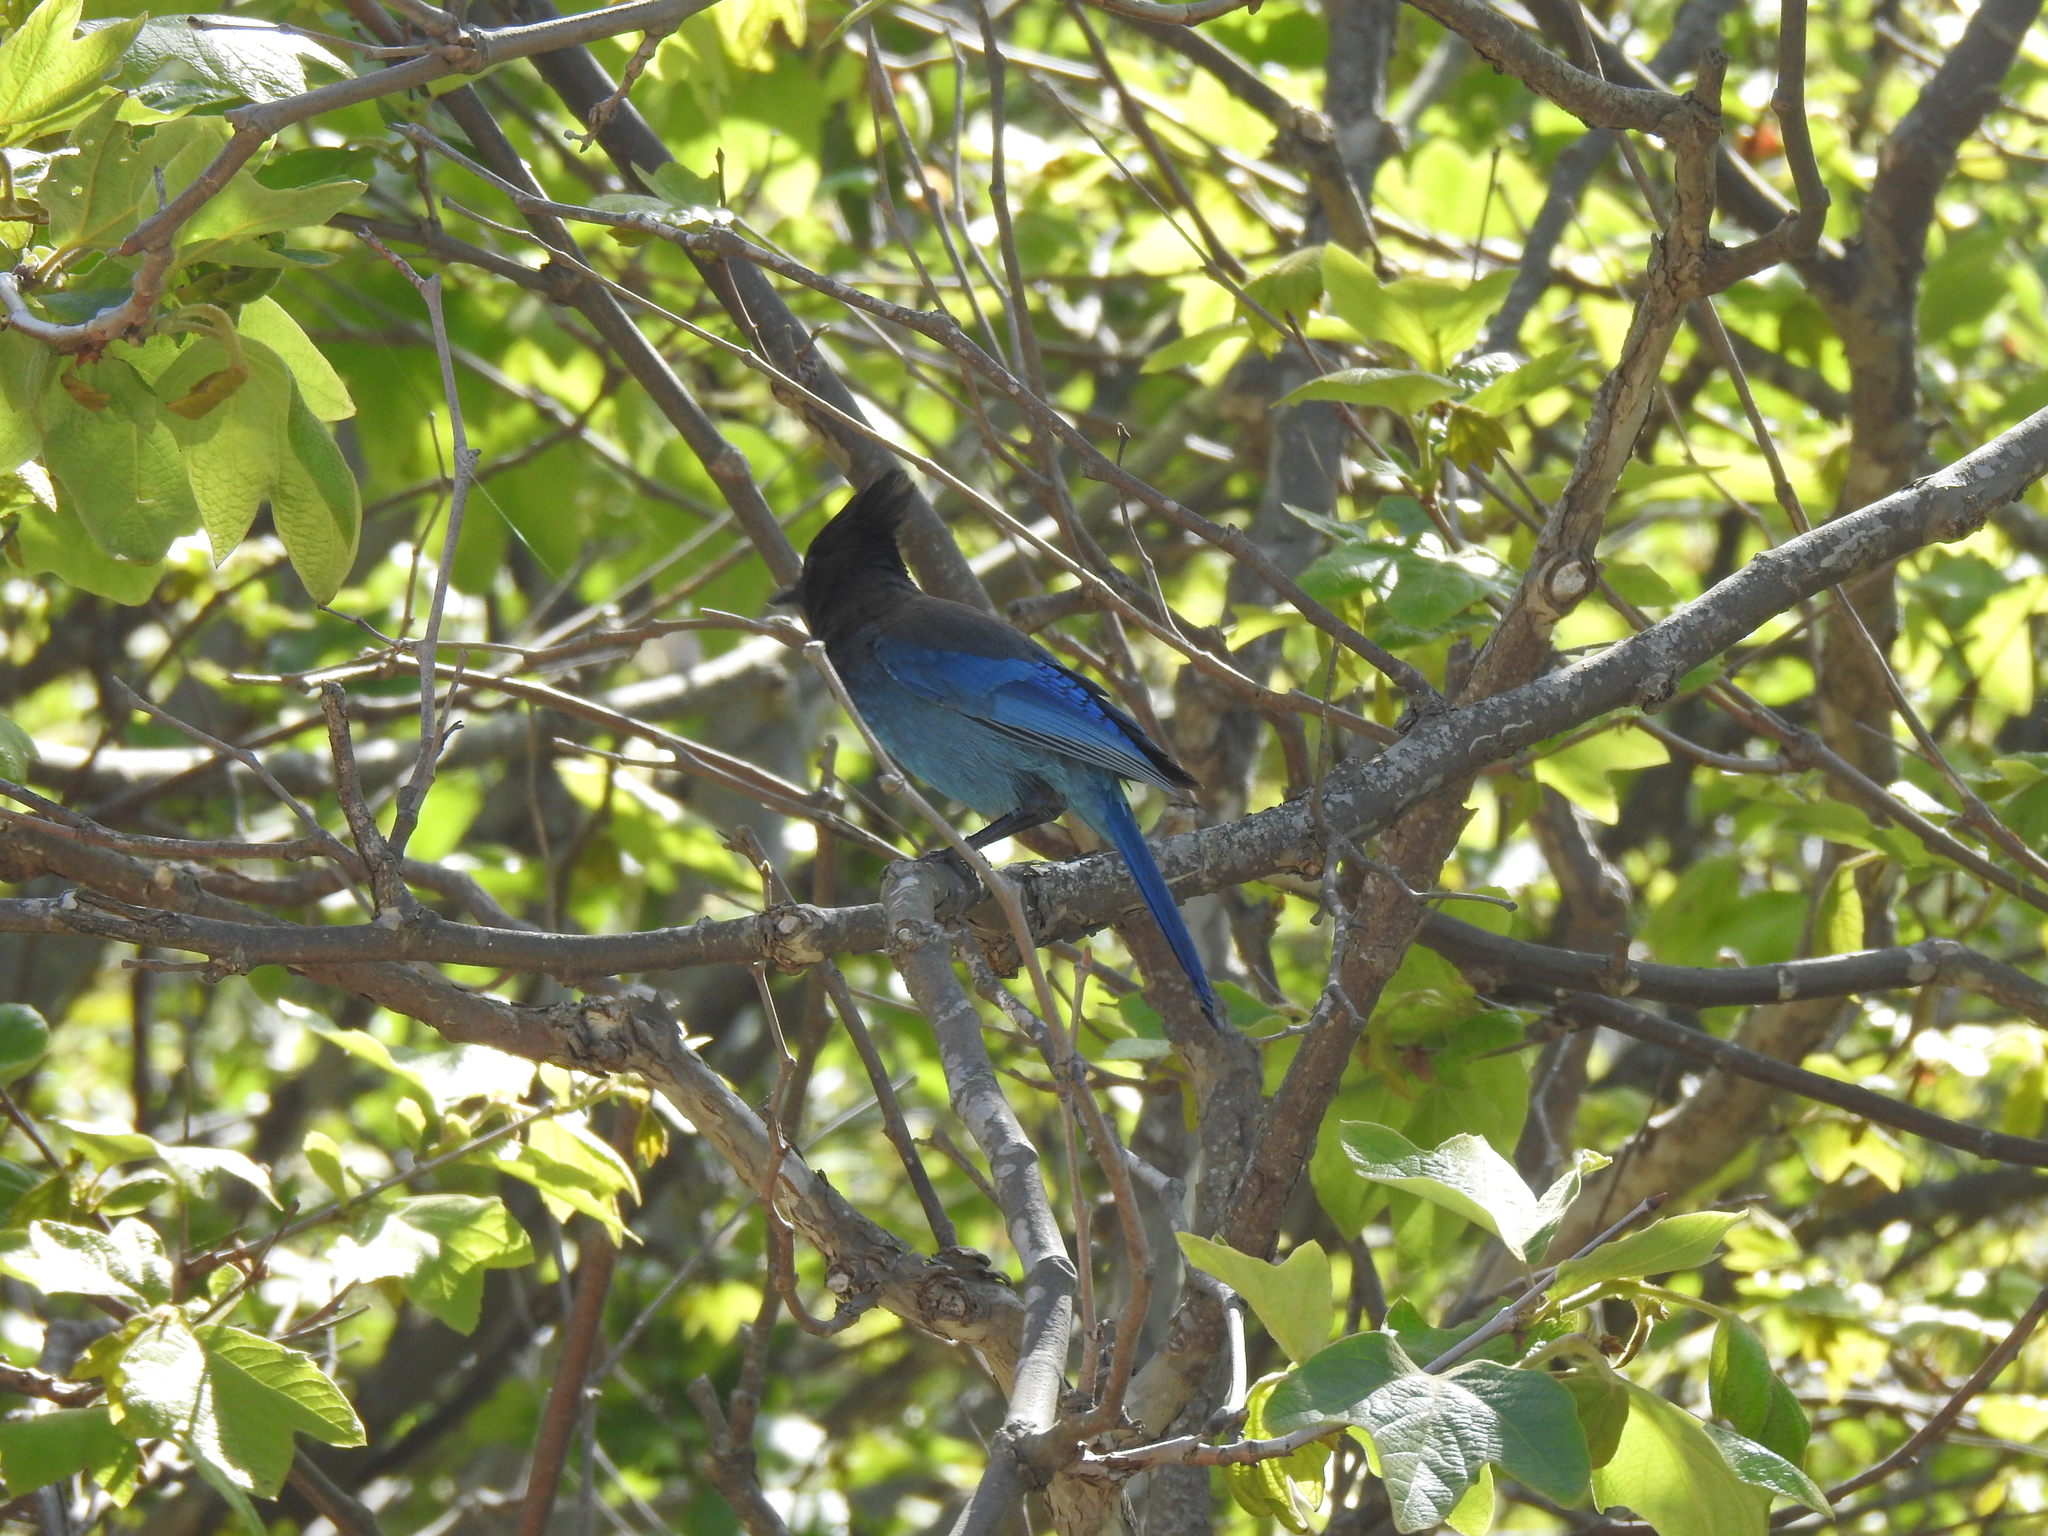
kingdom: Animalia
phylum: Chordata
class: Aves
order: Passeriformes
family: Corvidae
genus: Cyanocitta
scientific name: Cyanocitta stelleri
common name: Steller's jay
